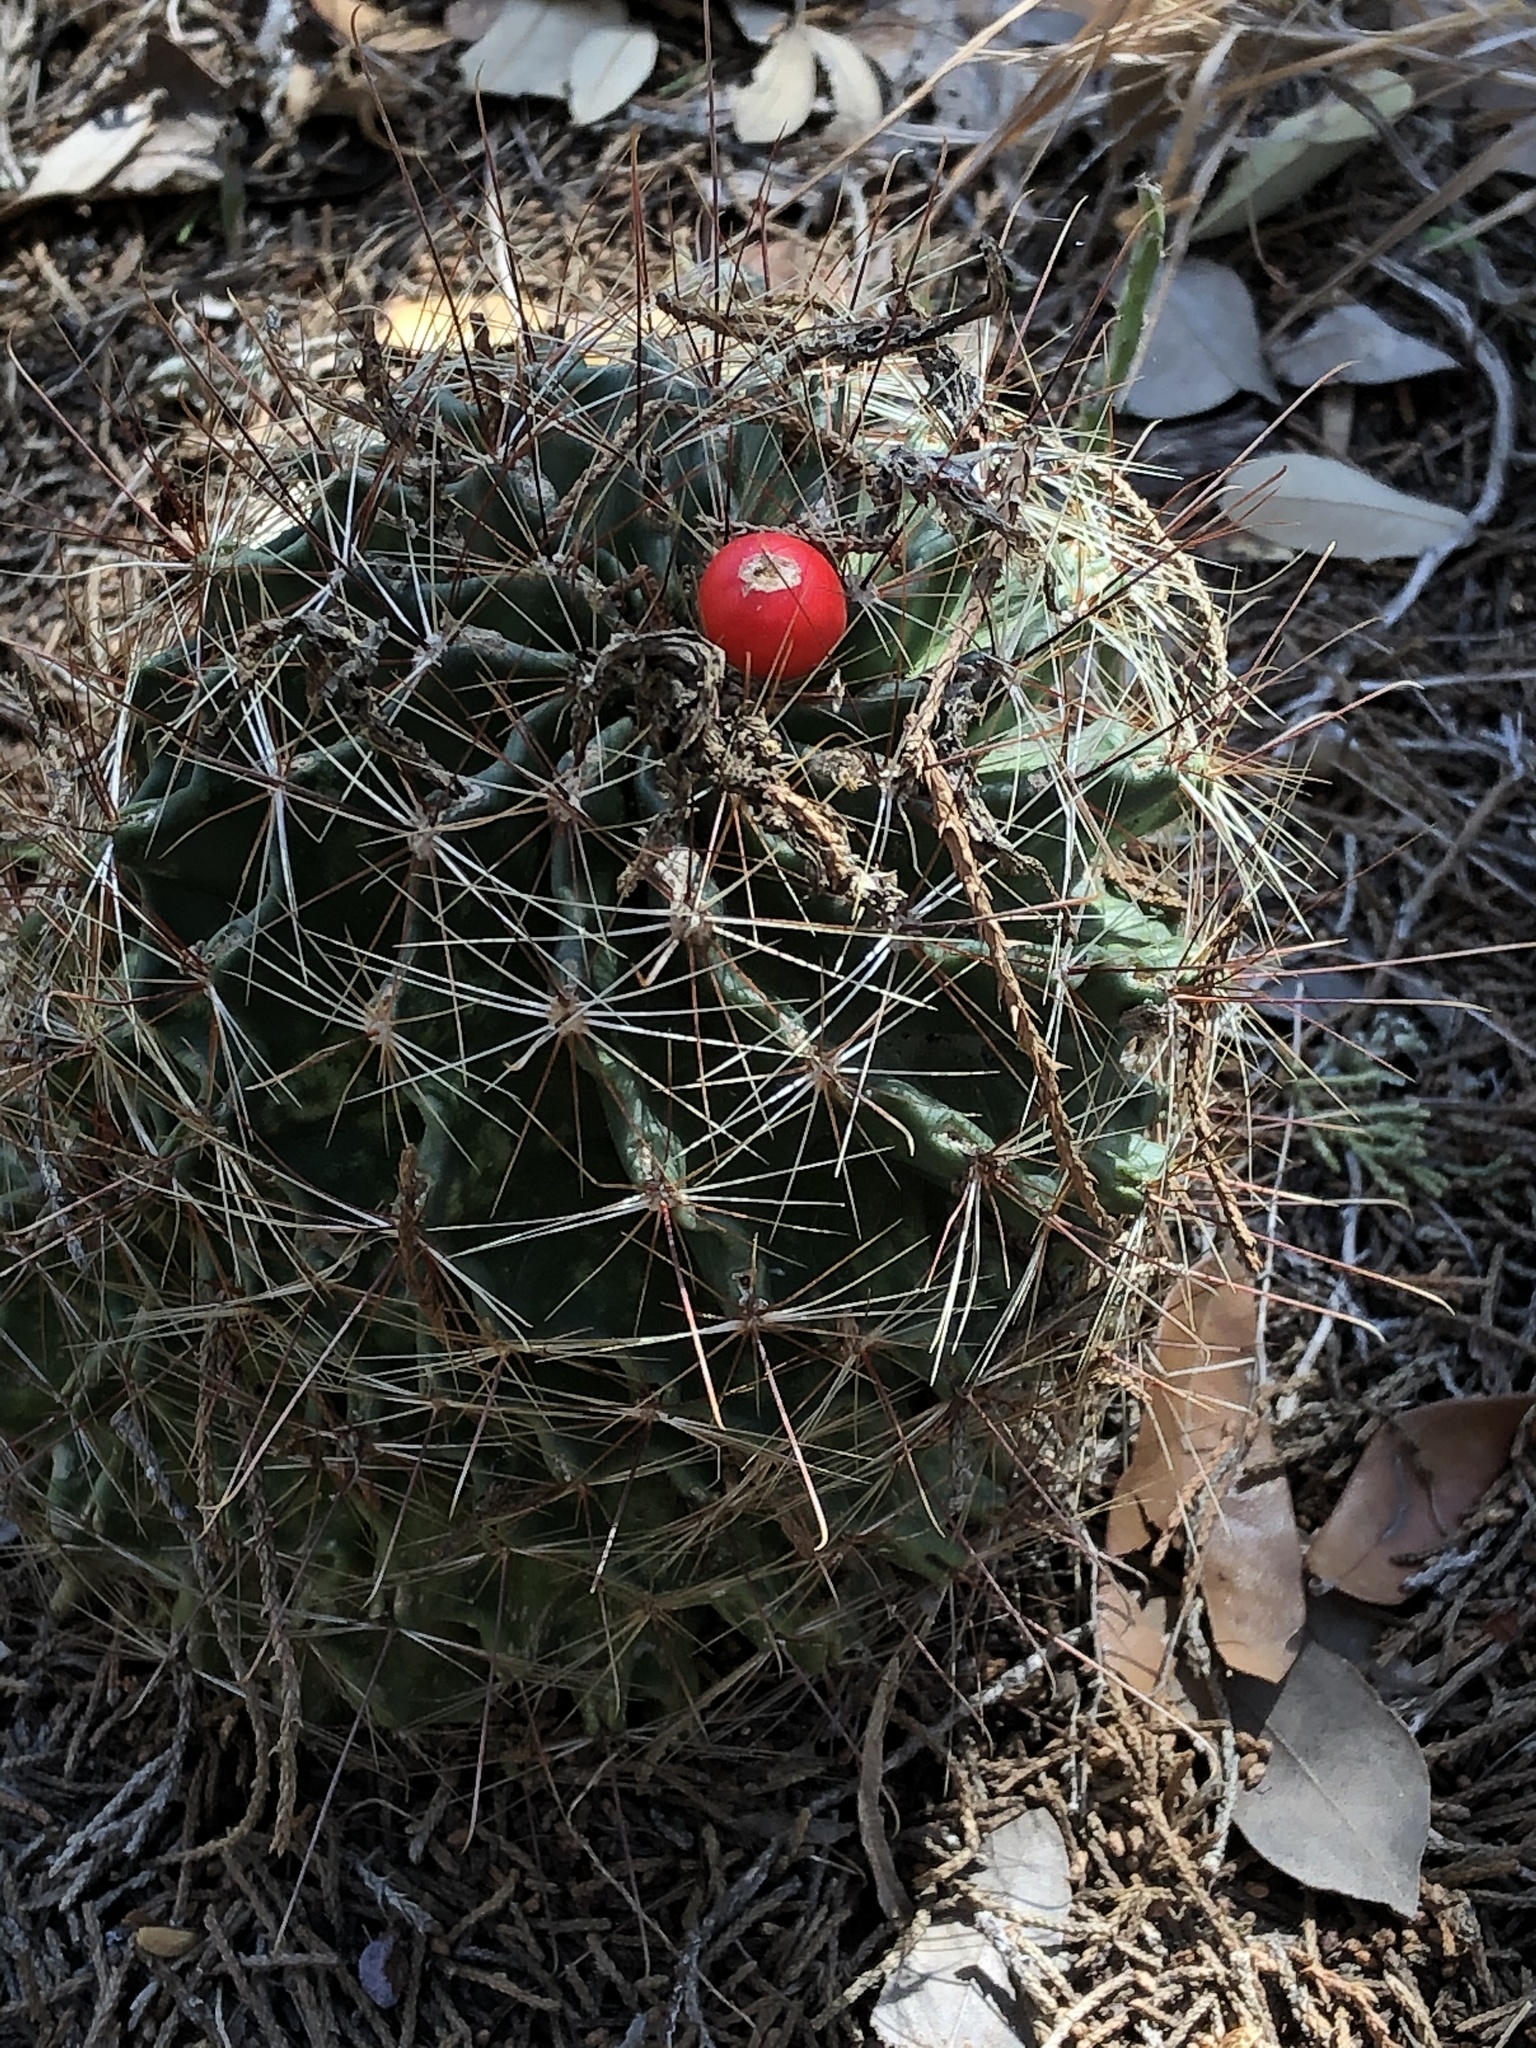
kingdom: Plantae
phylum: Tracheophyta
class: Magnoliopsida
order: Caryophyllales
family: Cactaceae
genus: Thelocactus
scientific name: Thelocactus setispinus
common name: Miniature barrel cactus
